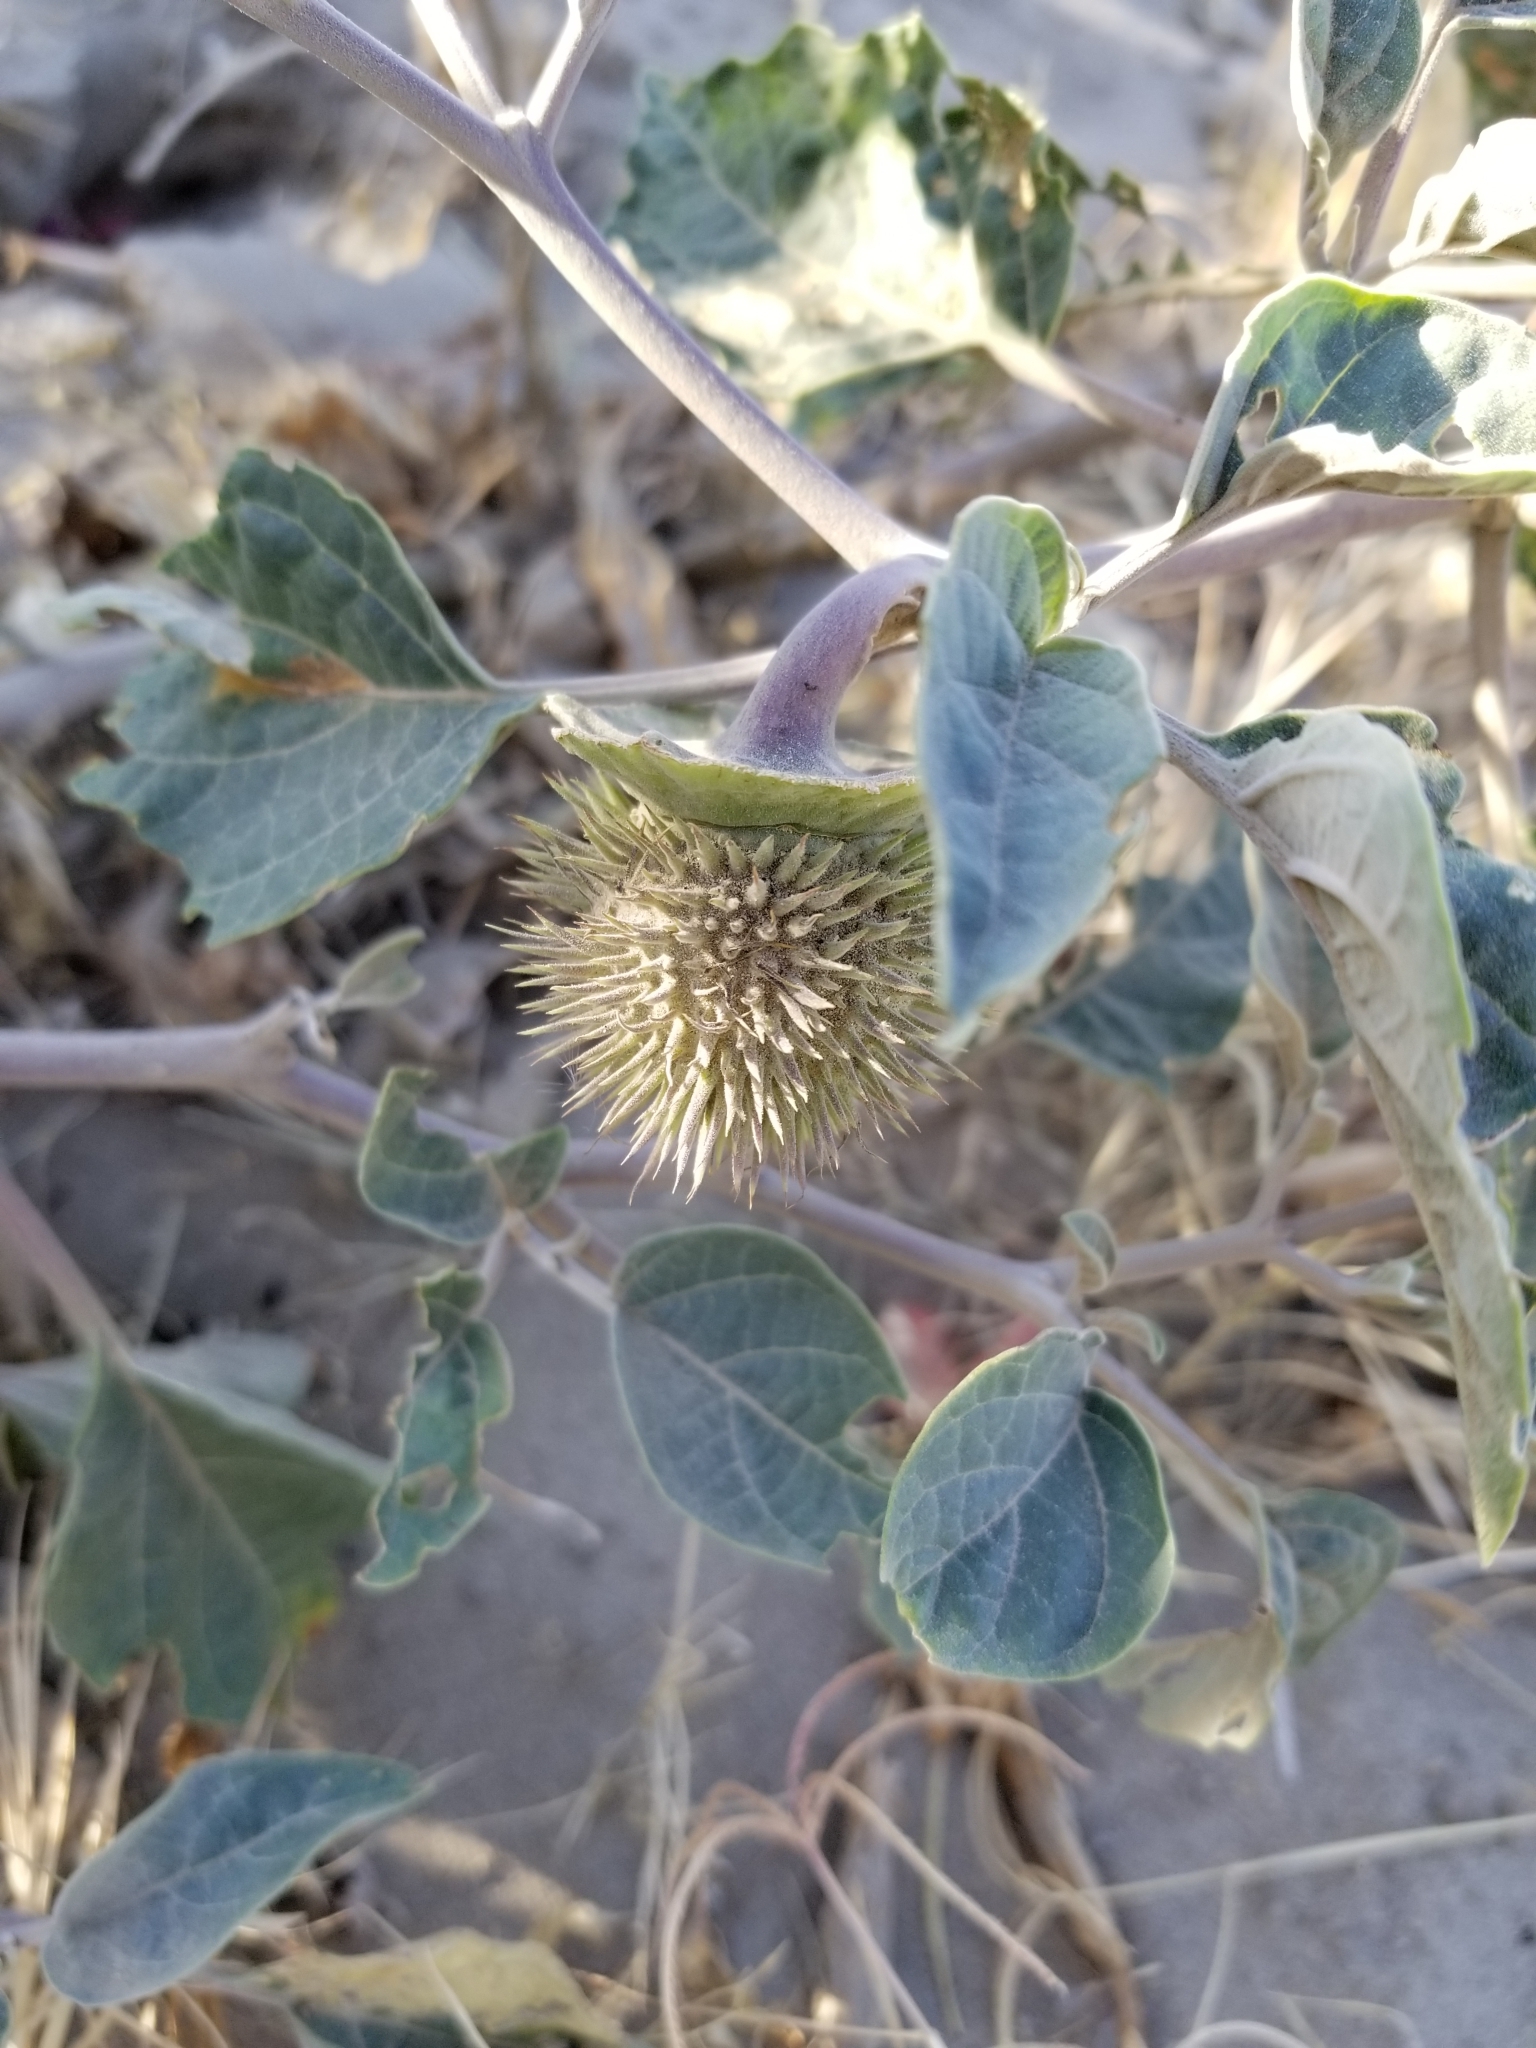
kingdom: Plantae
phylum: Tracheophyta
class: Magnoliopsida
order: Solanales
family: Solanaceae
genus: Datura
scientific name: Datura wrightii
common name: Sacred thorn-apple
